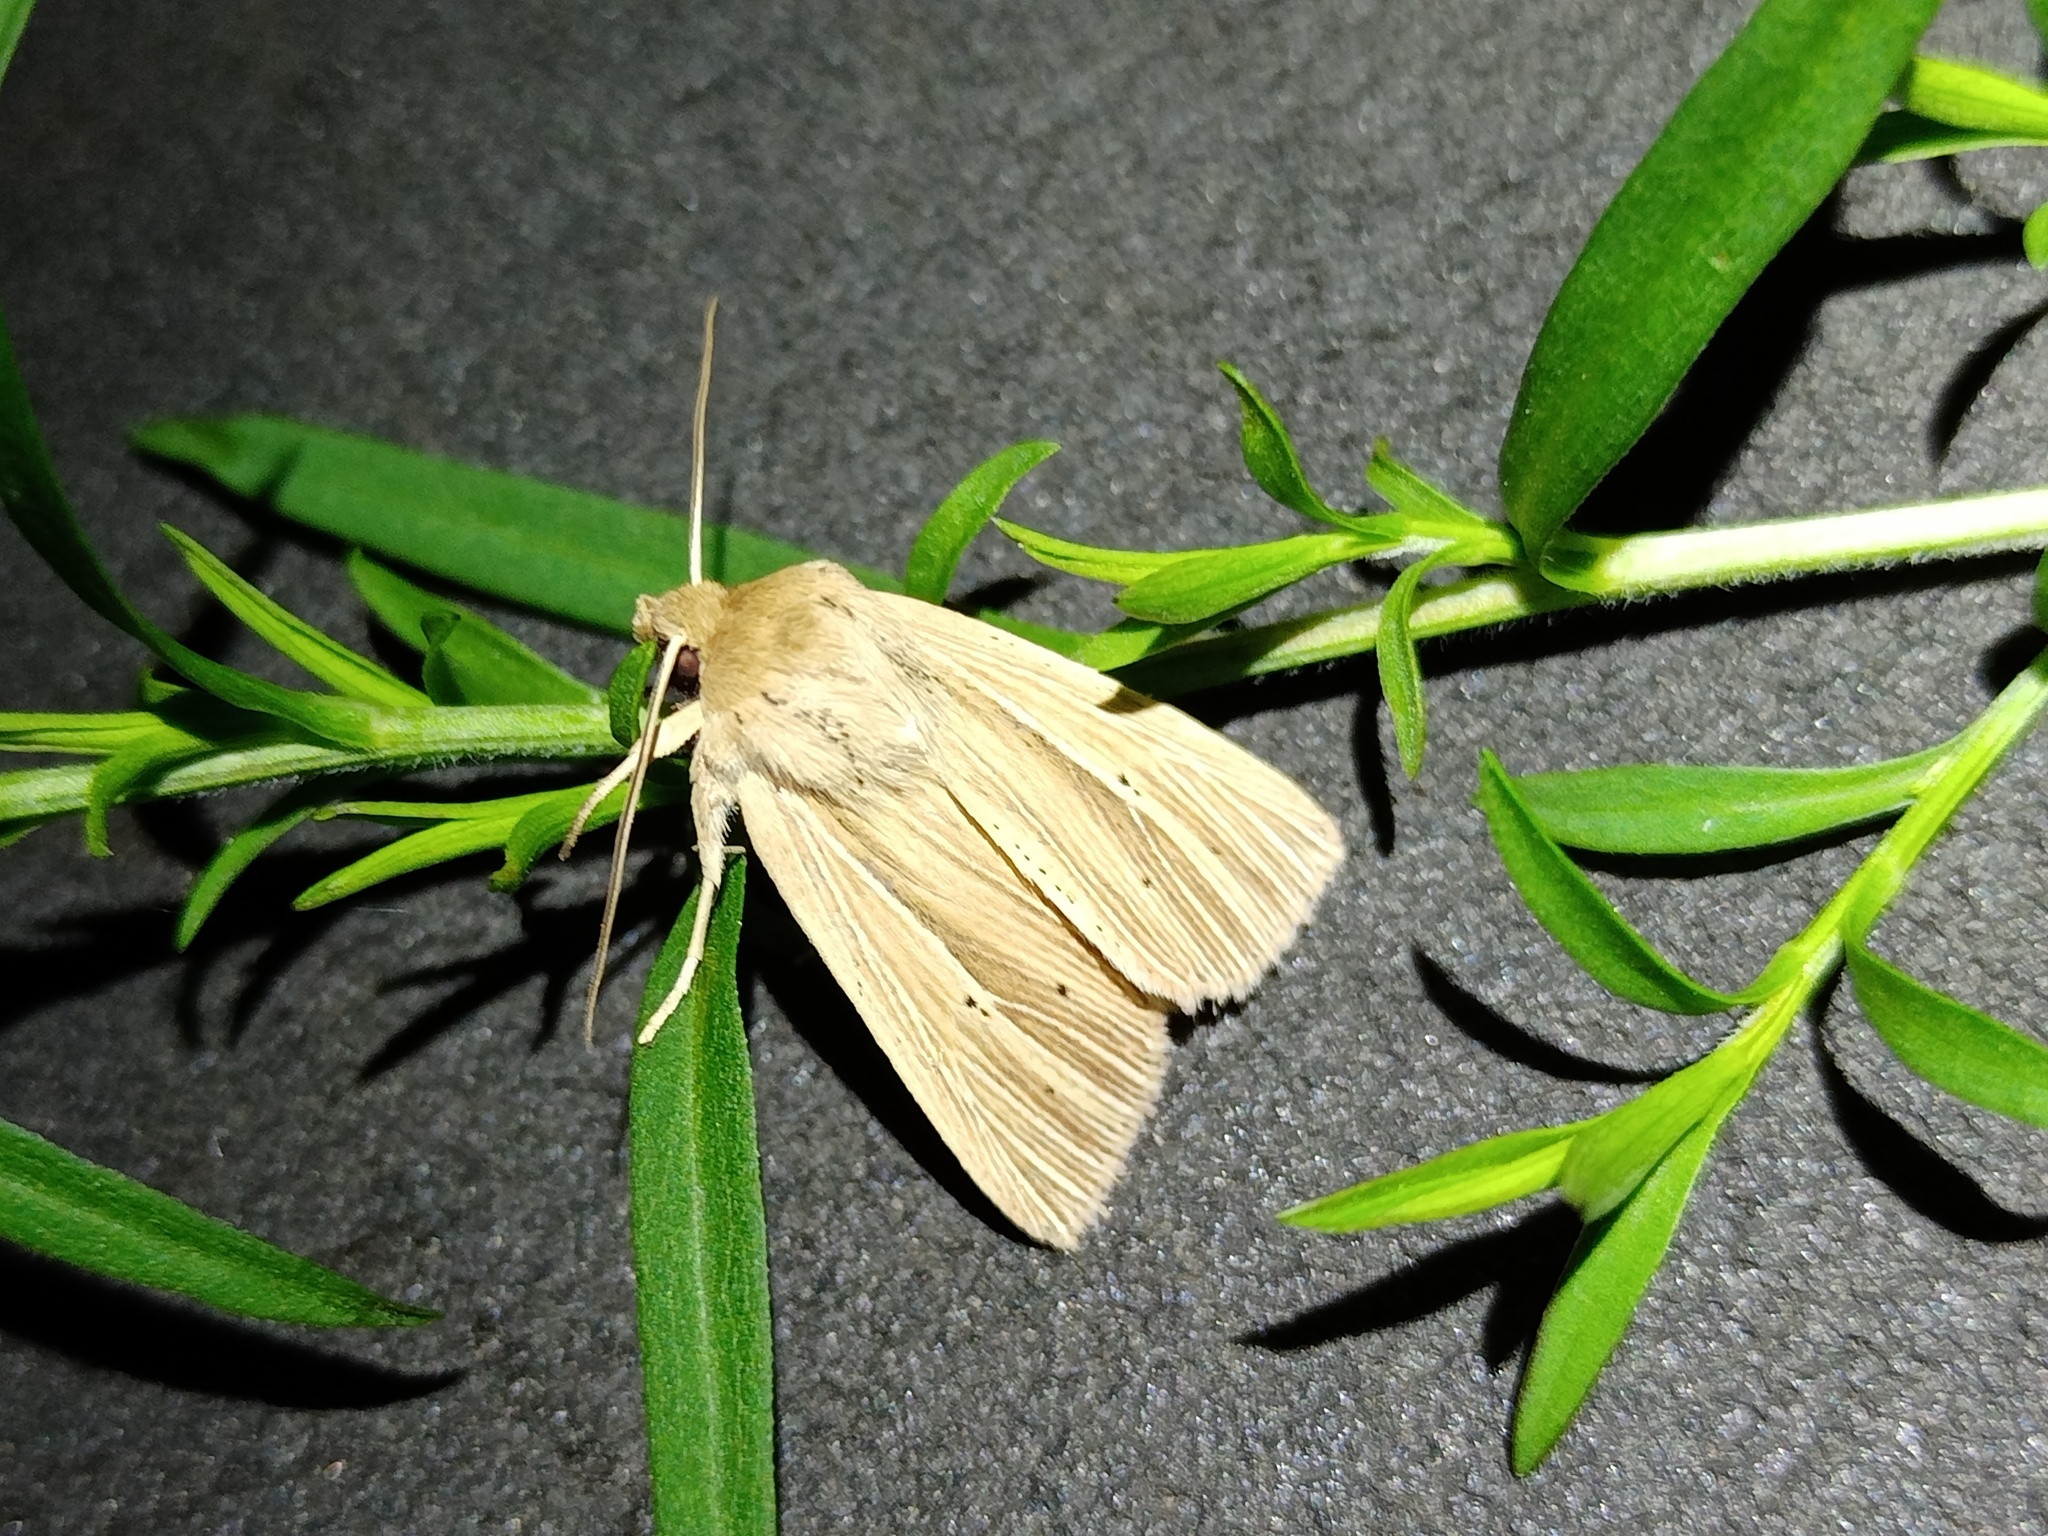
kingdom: Animalia
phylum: Arthropoda
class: Insecta
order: Lepidoptera
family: Noctuidae
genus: Mythimna
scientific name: Mythimna impura
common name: Smoky wainscot
